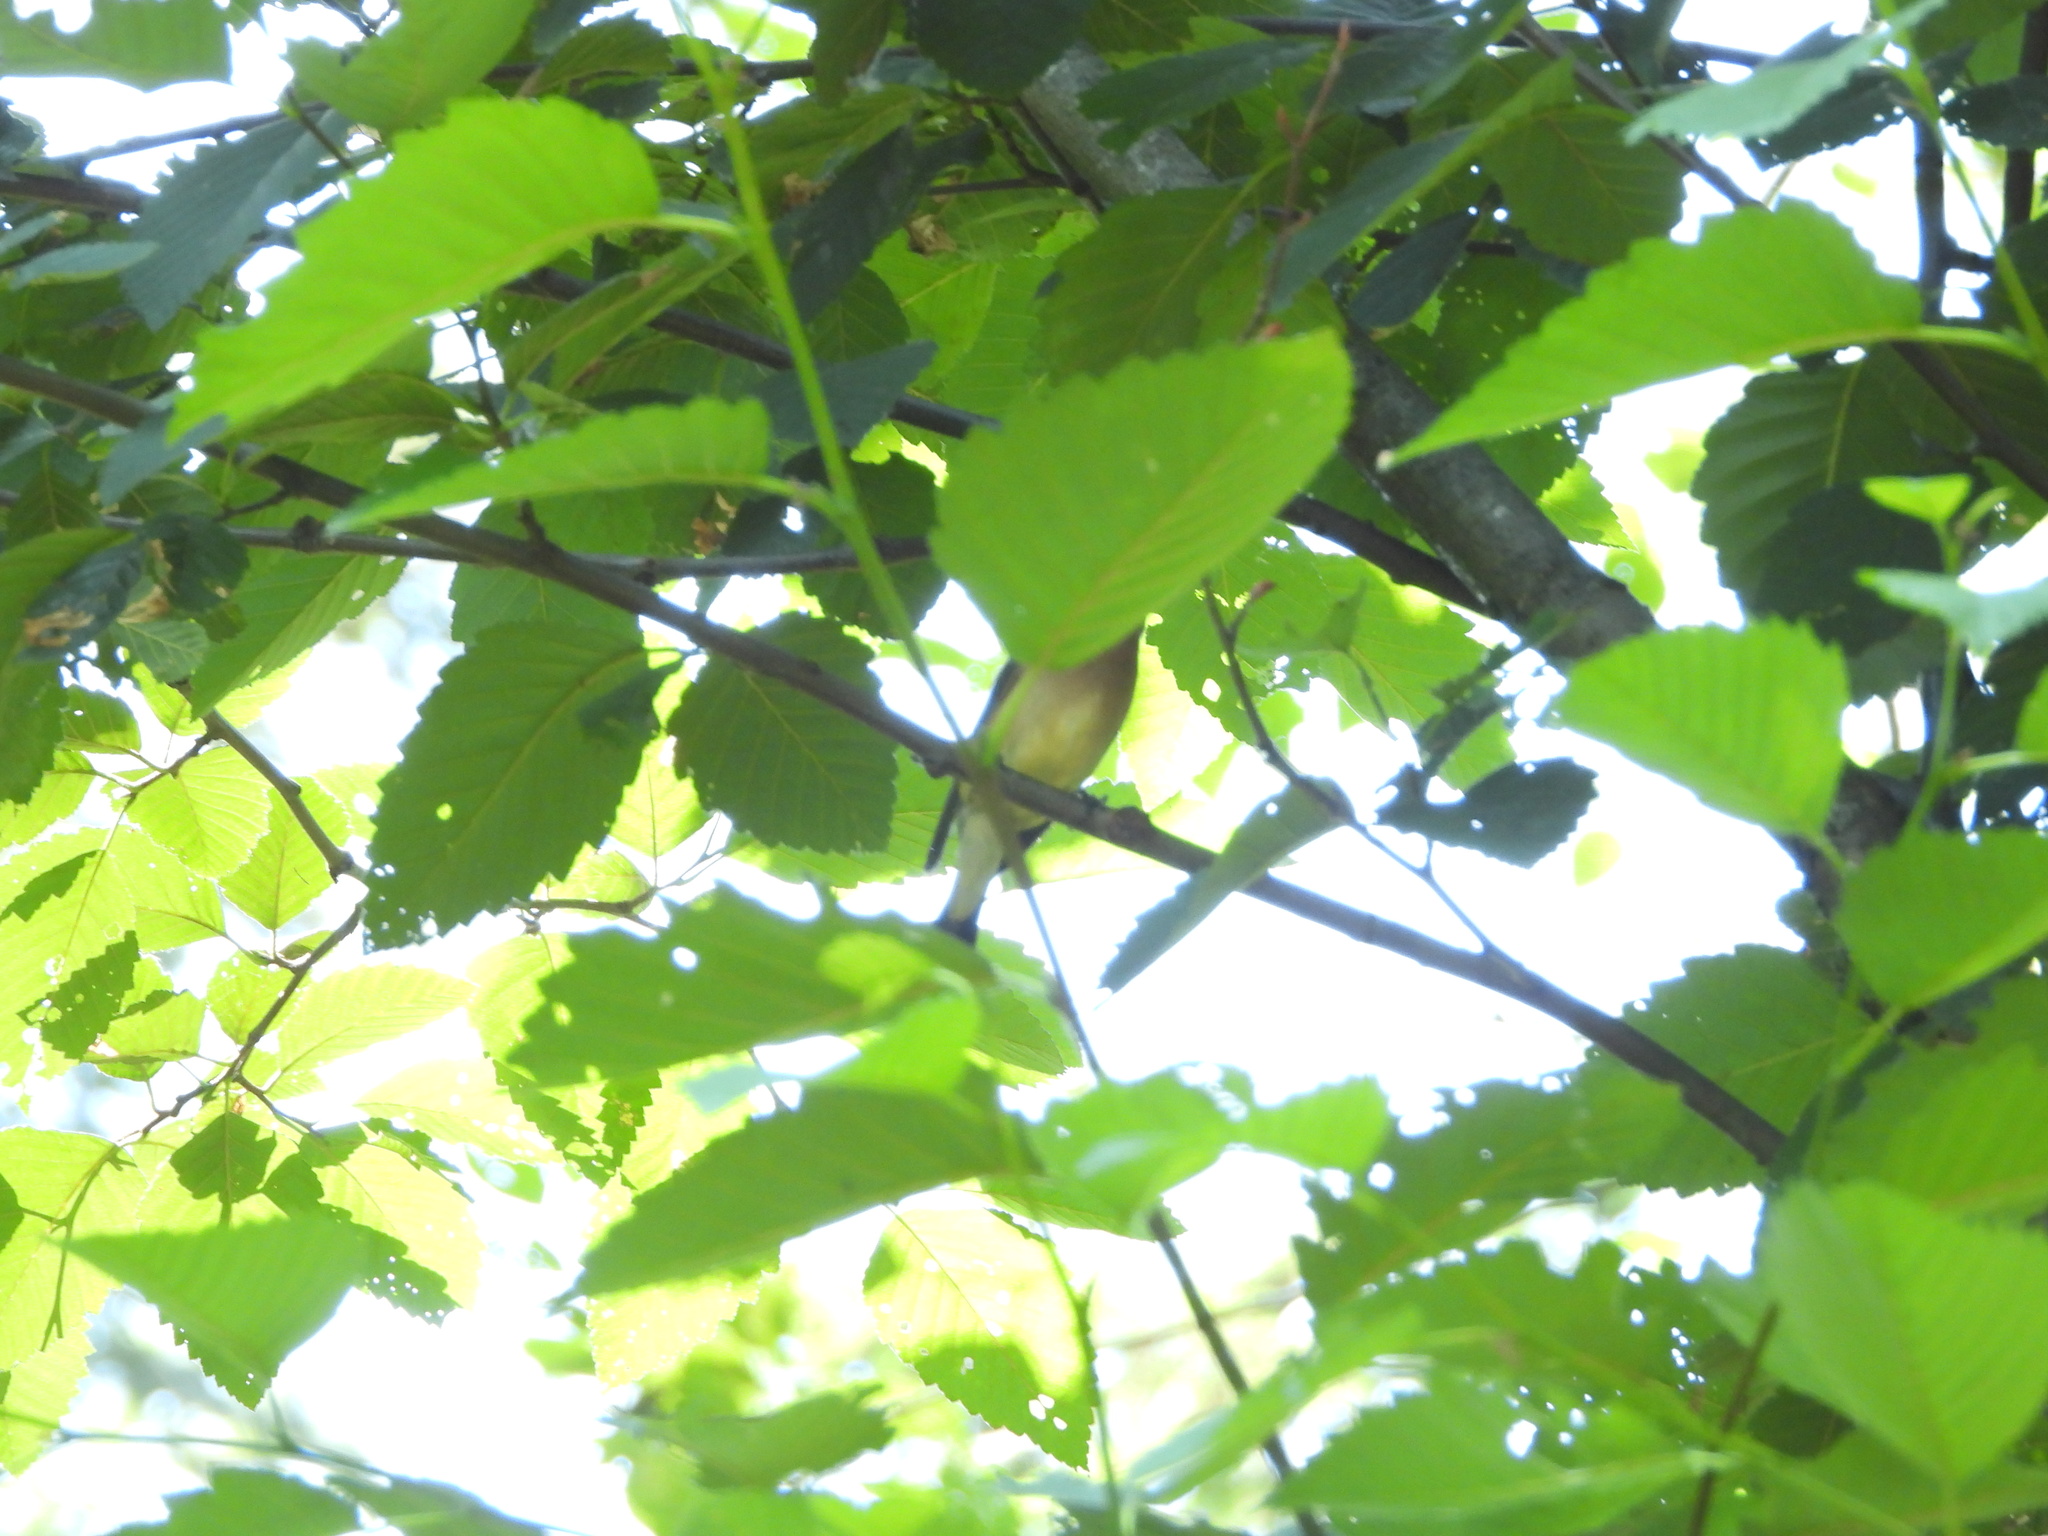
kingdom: Animalia
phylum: Chordata
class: Aves
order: Passeriformes
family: Bombycillidae
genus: Bombycilla
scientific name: Bombycilla cedrorum
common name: Cedar waxwing
